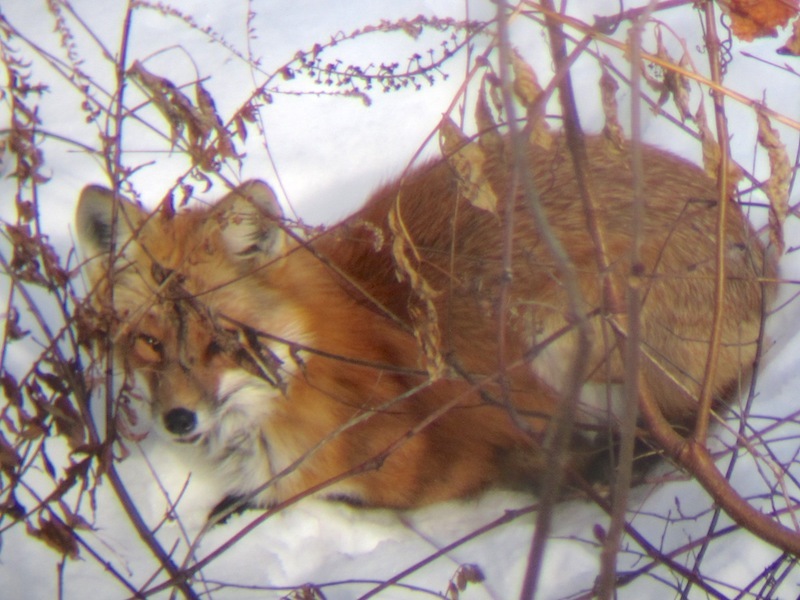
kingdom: Animalia
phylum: Chordata
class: Mammalia
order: Carnivora
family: Canidae
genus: Vulpes
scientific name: Vulpes vulpes
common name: Red fox
